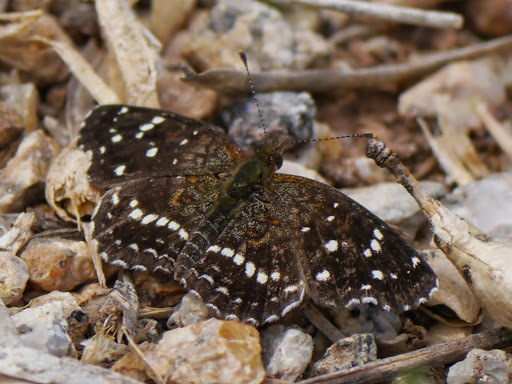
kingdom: Animalia
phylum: Arthropoda
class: Insecta
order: Lepidoptera
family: Nymphalidae
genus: Anthanassa
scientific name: Anthanassa texana
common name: Texan crescent
